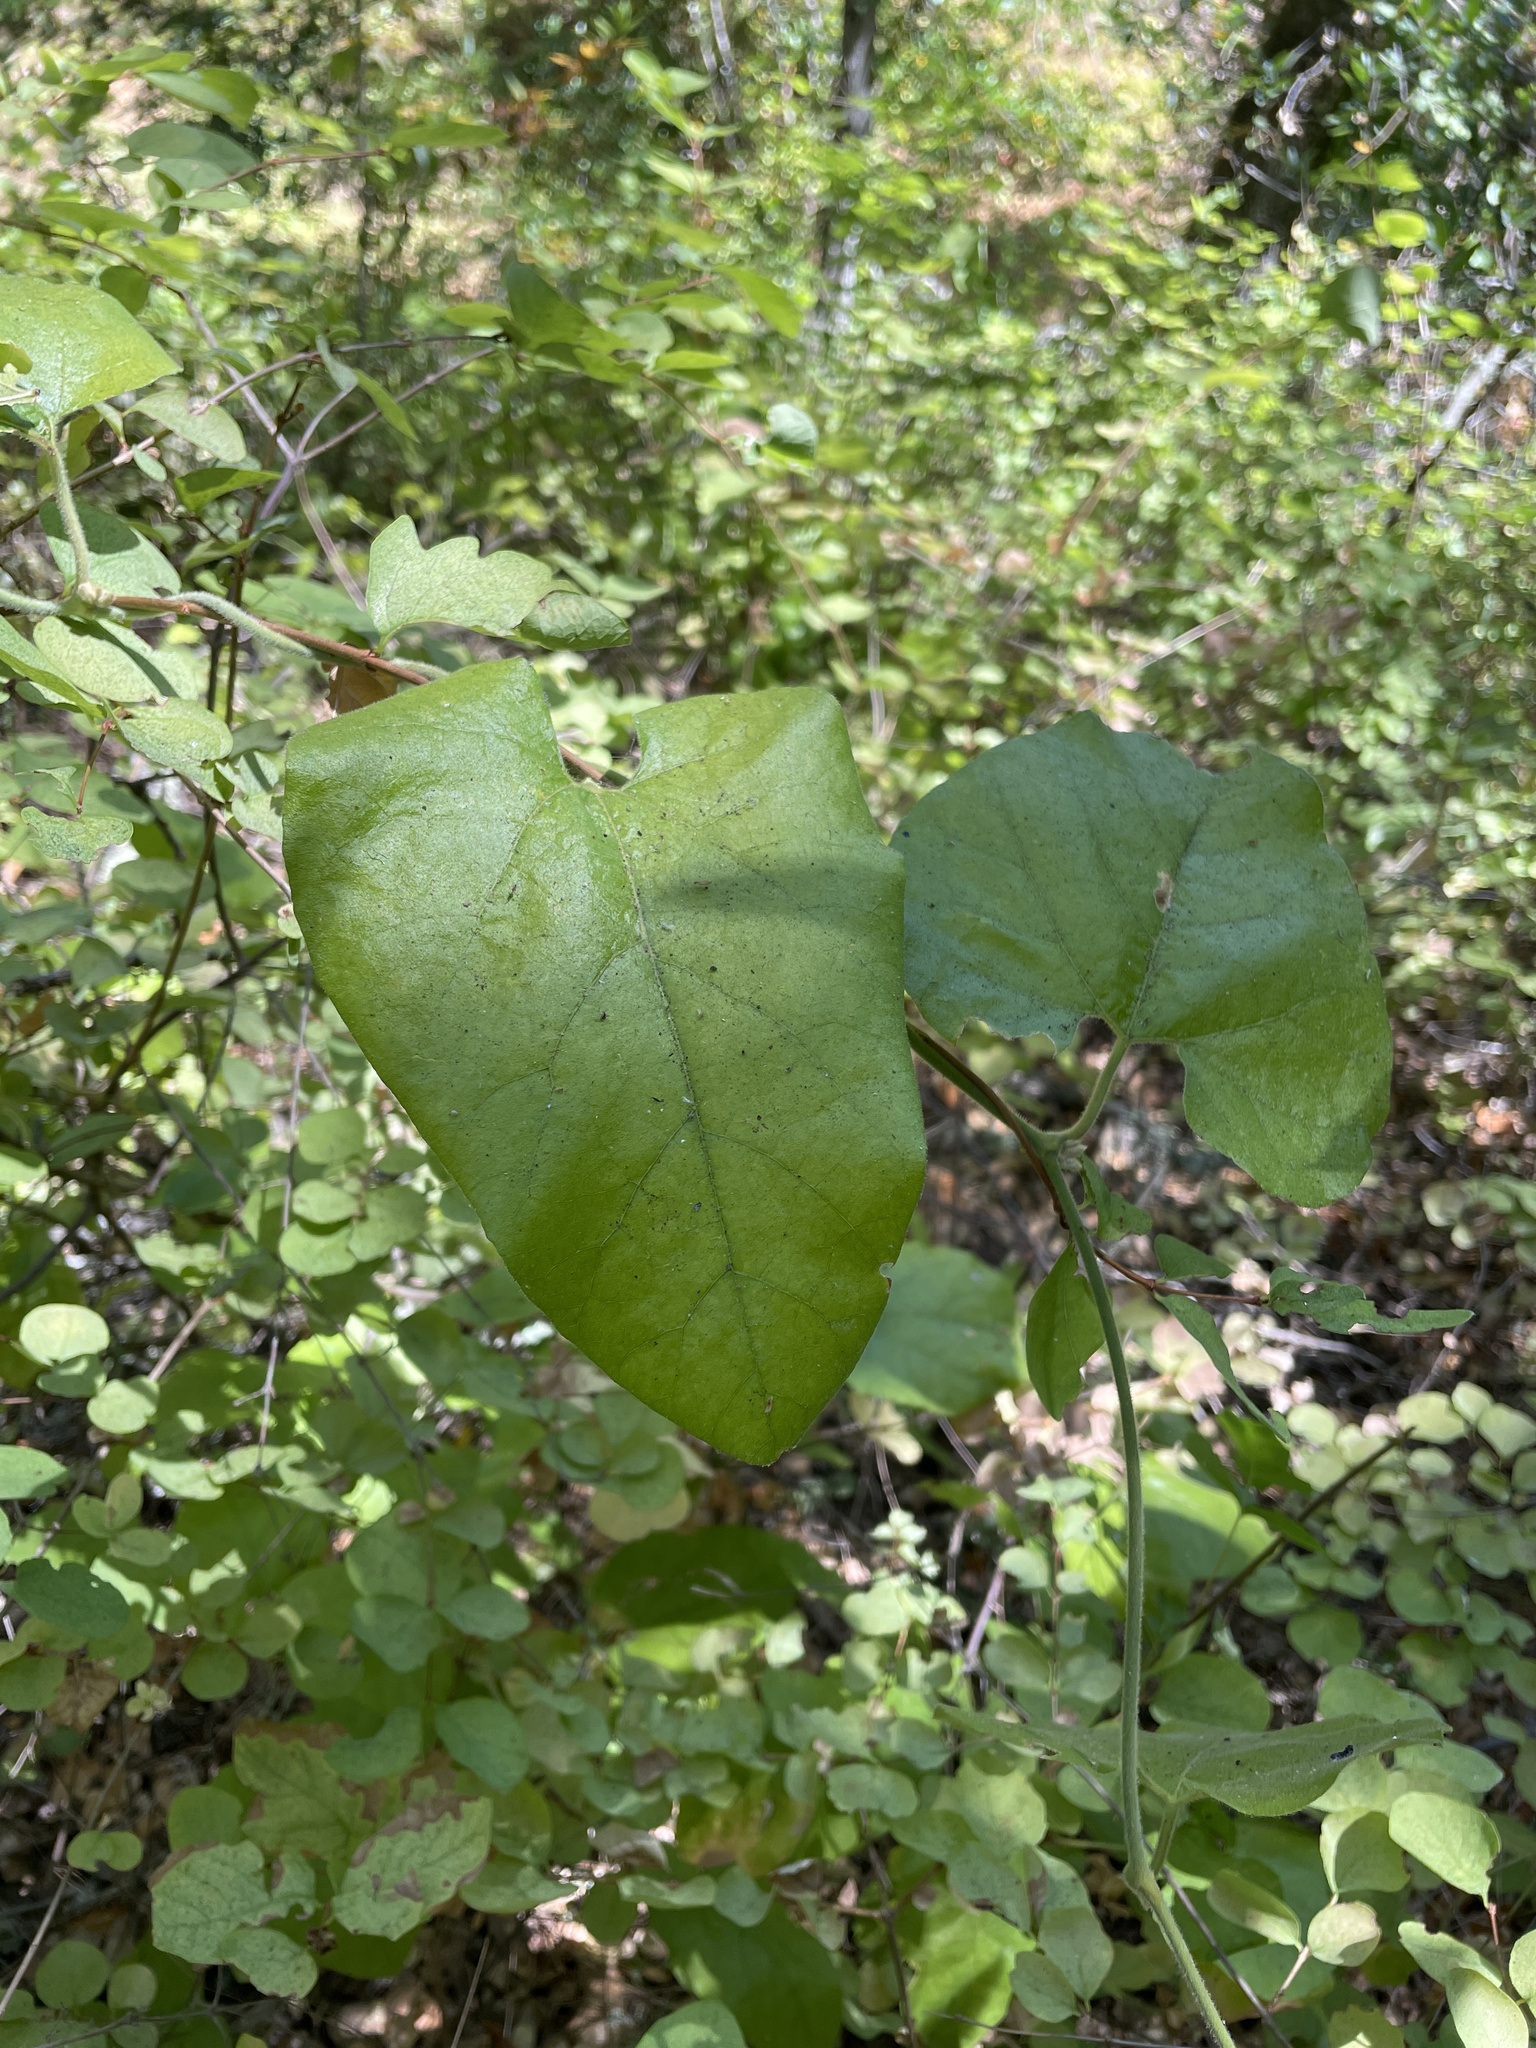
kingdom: Plantae
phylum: Tracheophyta
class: Magnoliopsida
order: Piperales
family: Aristolochiaceae
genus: Isotrema
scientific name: Isotrema californicum
